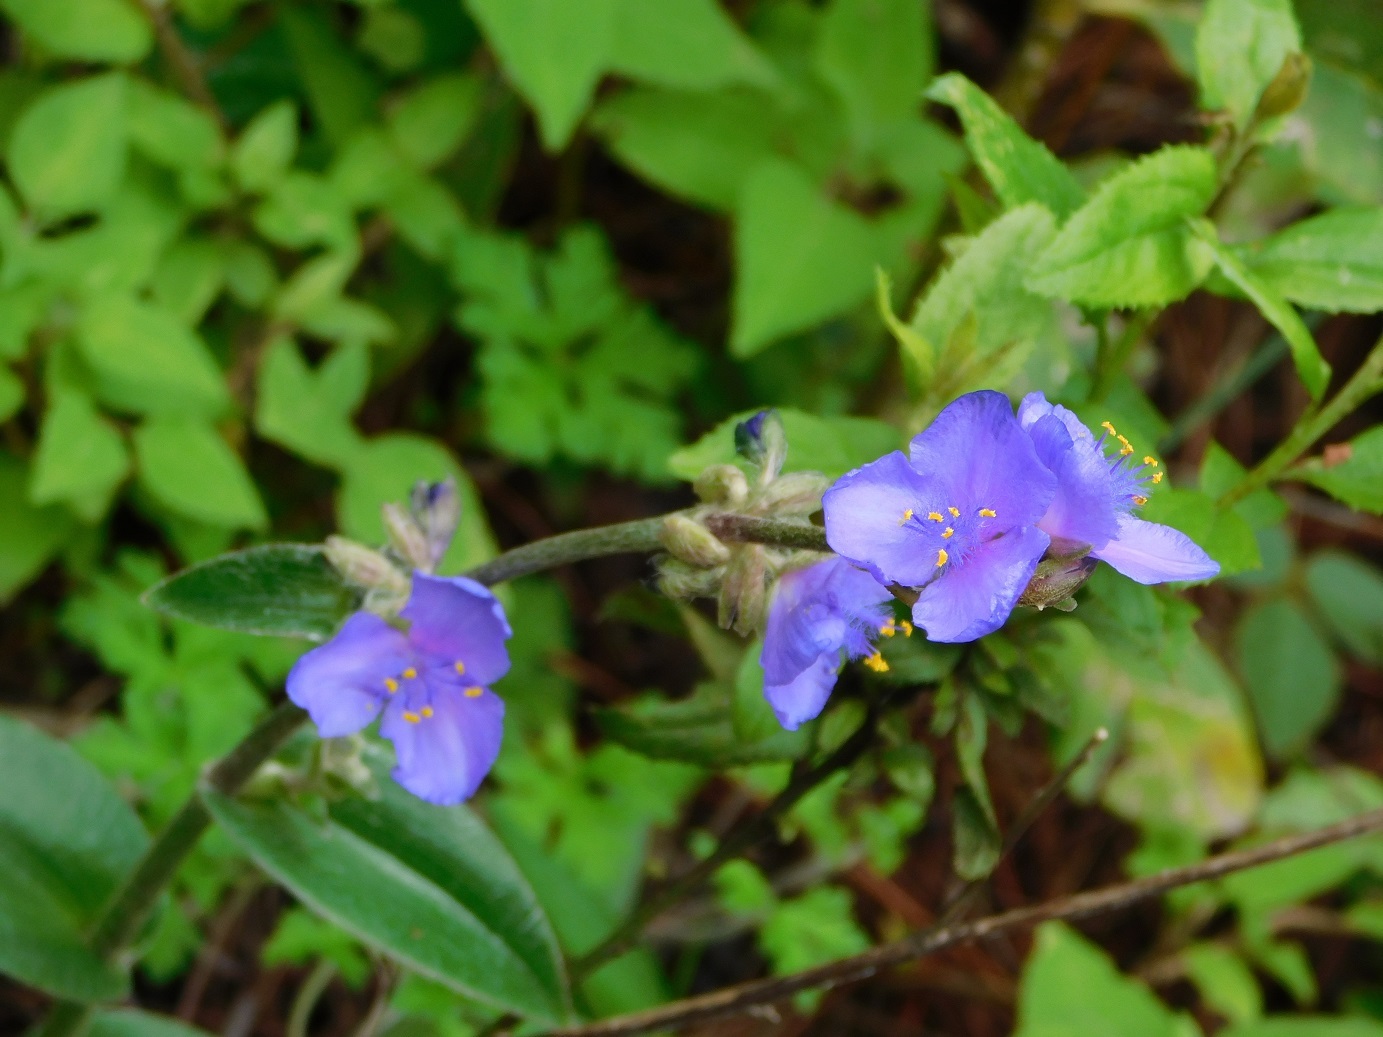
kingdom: Plantae
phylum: Tracheophyta
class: Liliopsida
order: Commelinales
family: Commelinaceae
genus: Tradescantia
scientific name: Tradescantia crassifolia
